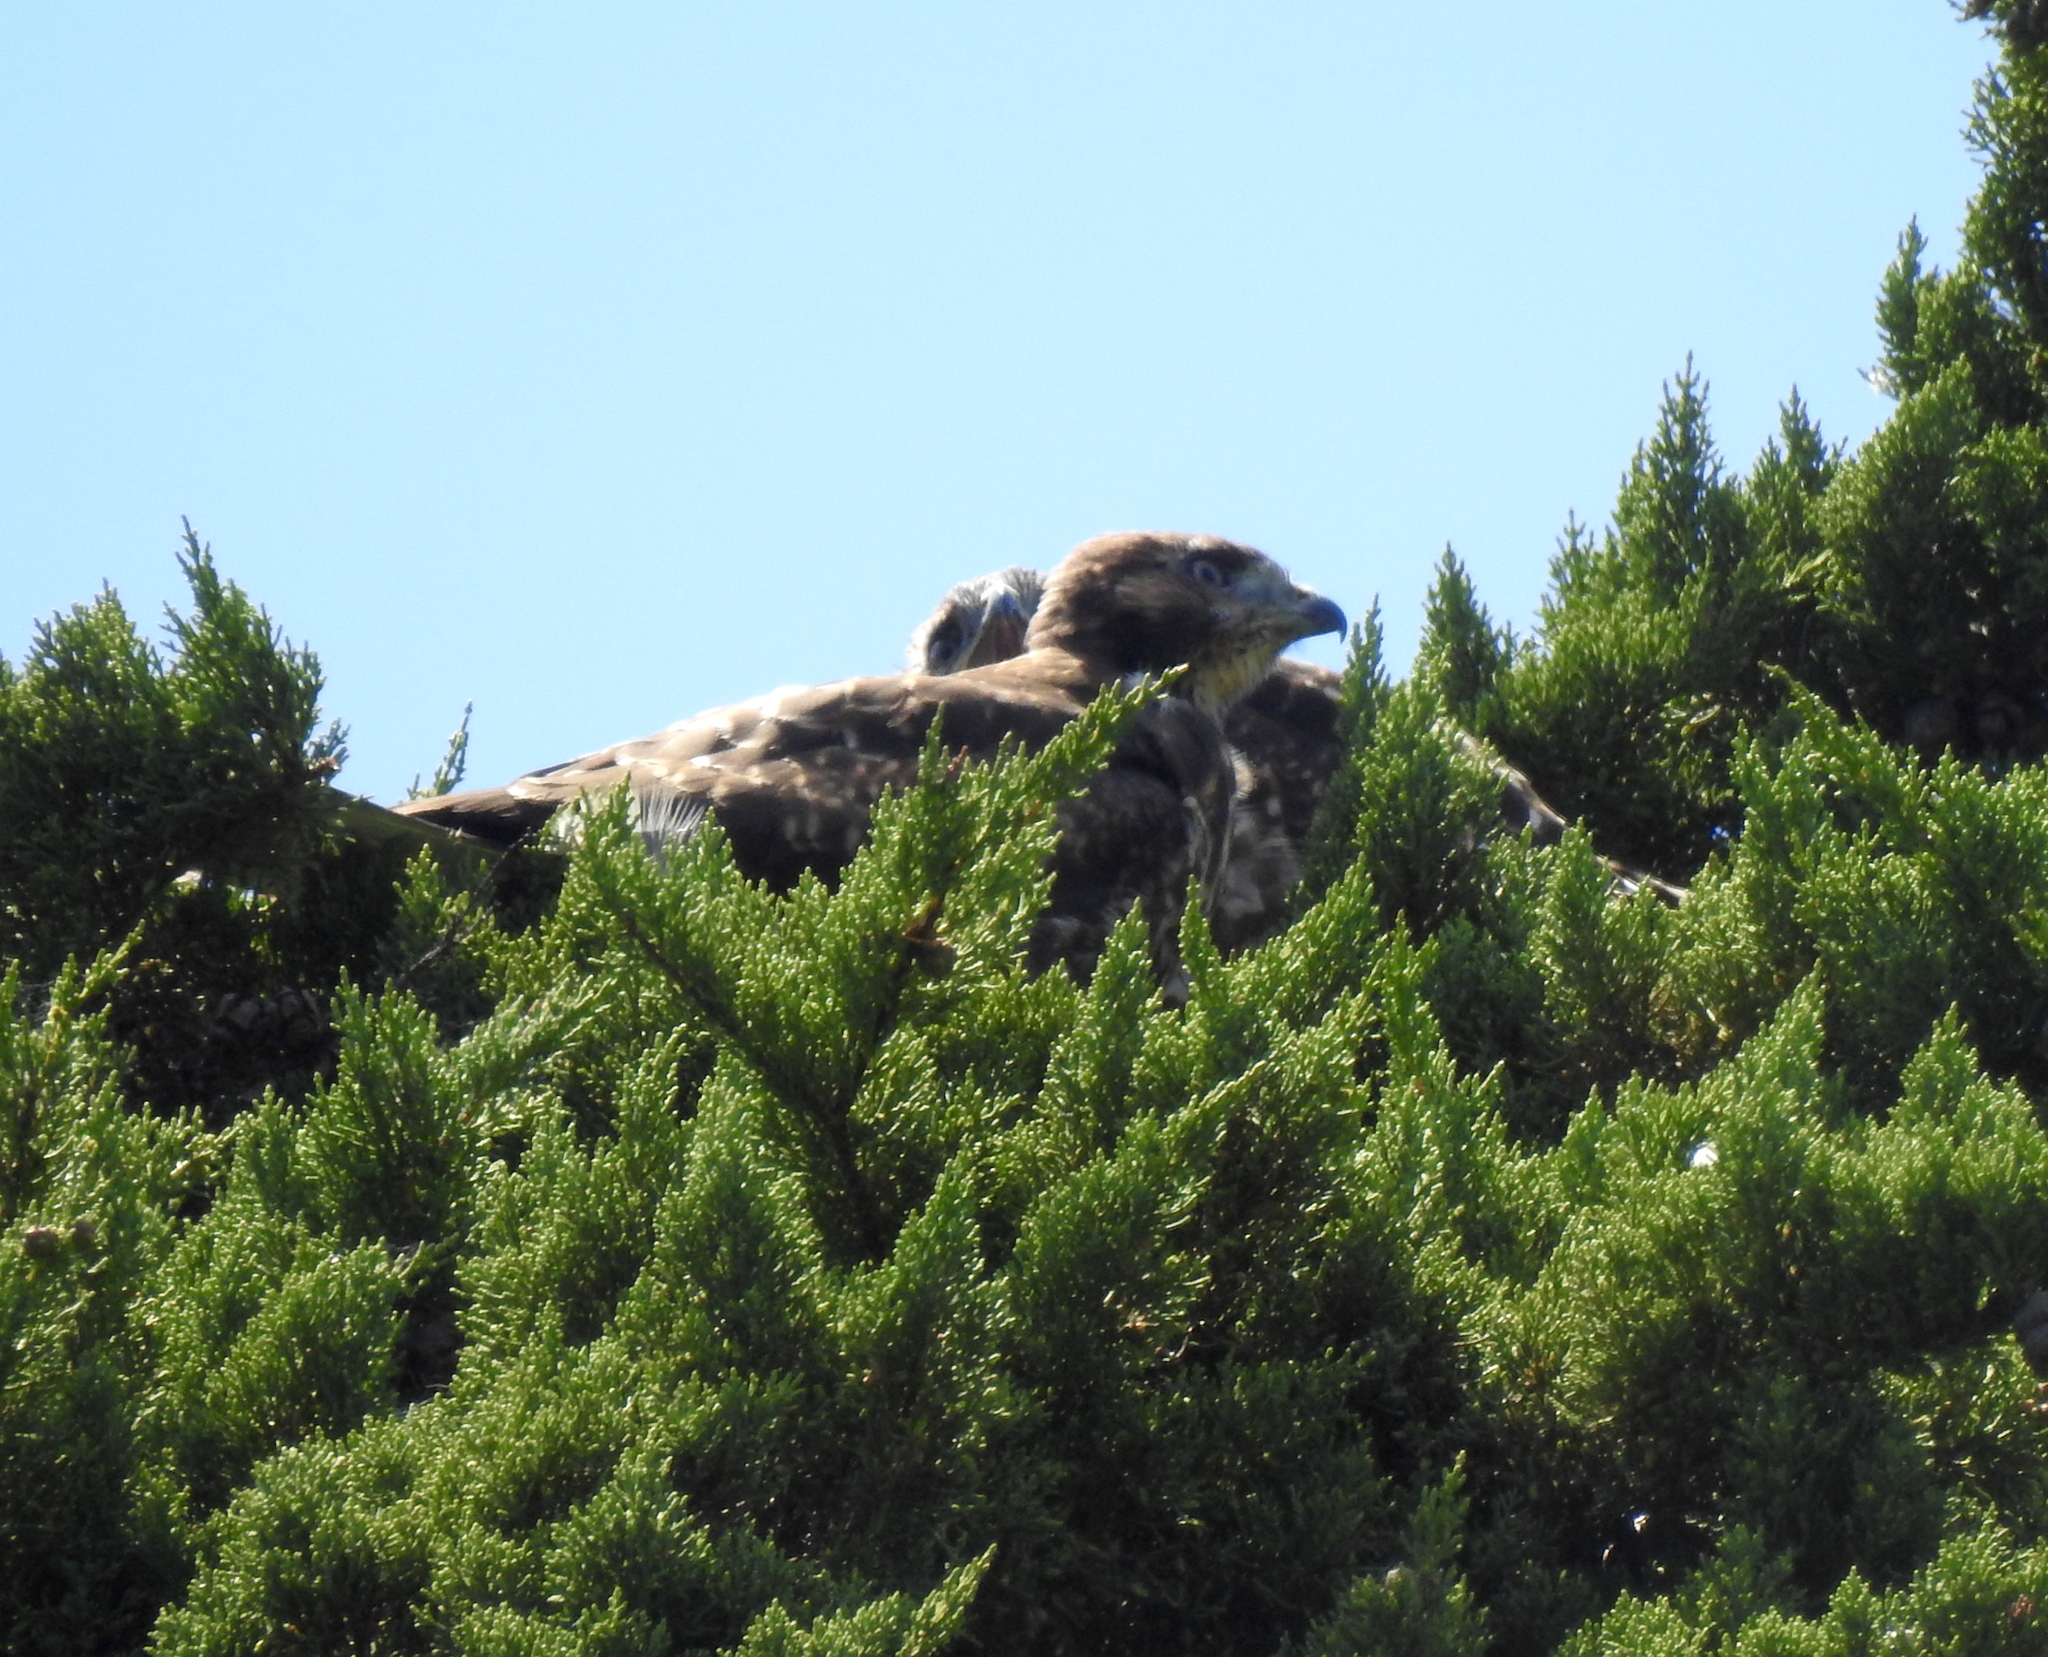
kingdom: Animalia
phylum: Chordata
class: Aves
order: Accipitriformes
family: Accipitridae
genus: Buteo
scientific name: Buteo jamaicensis
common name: Red-tailed hawk
